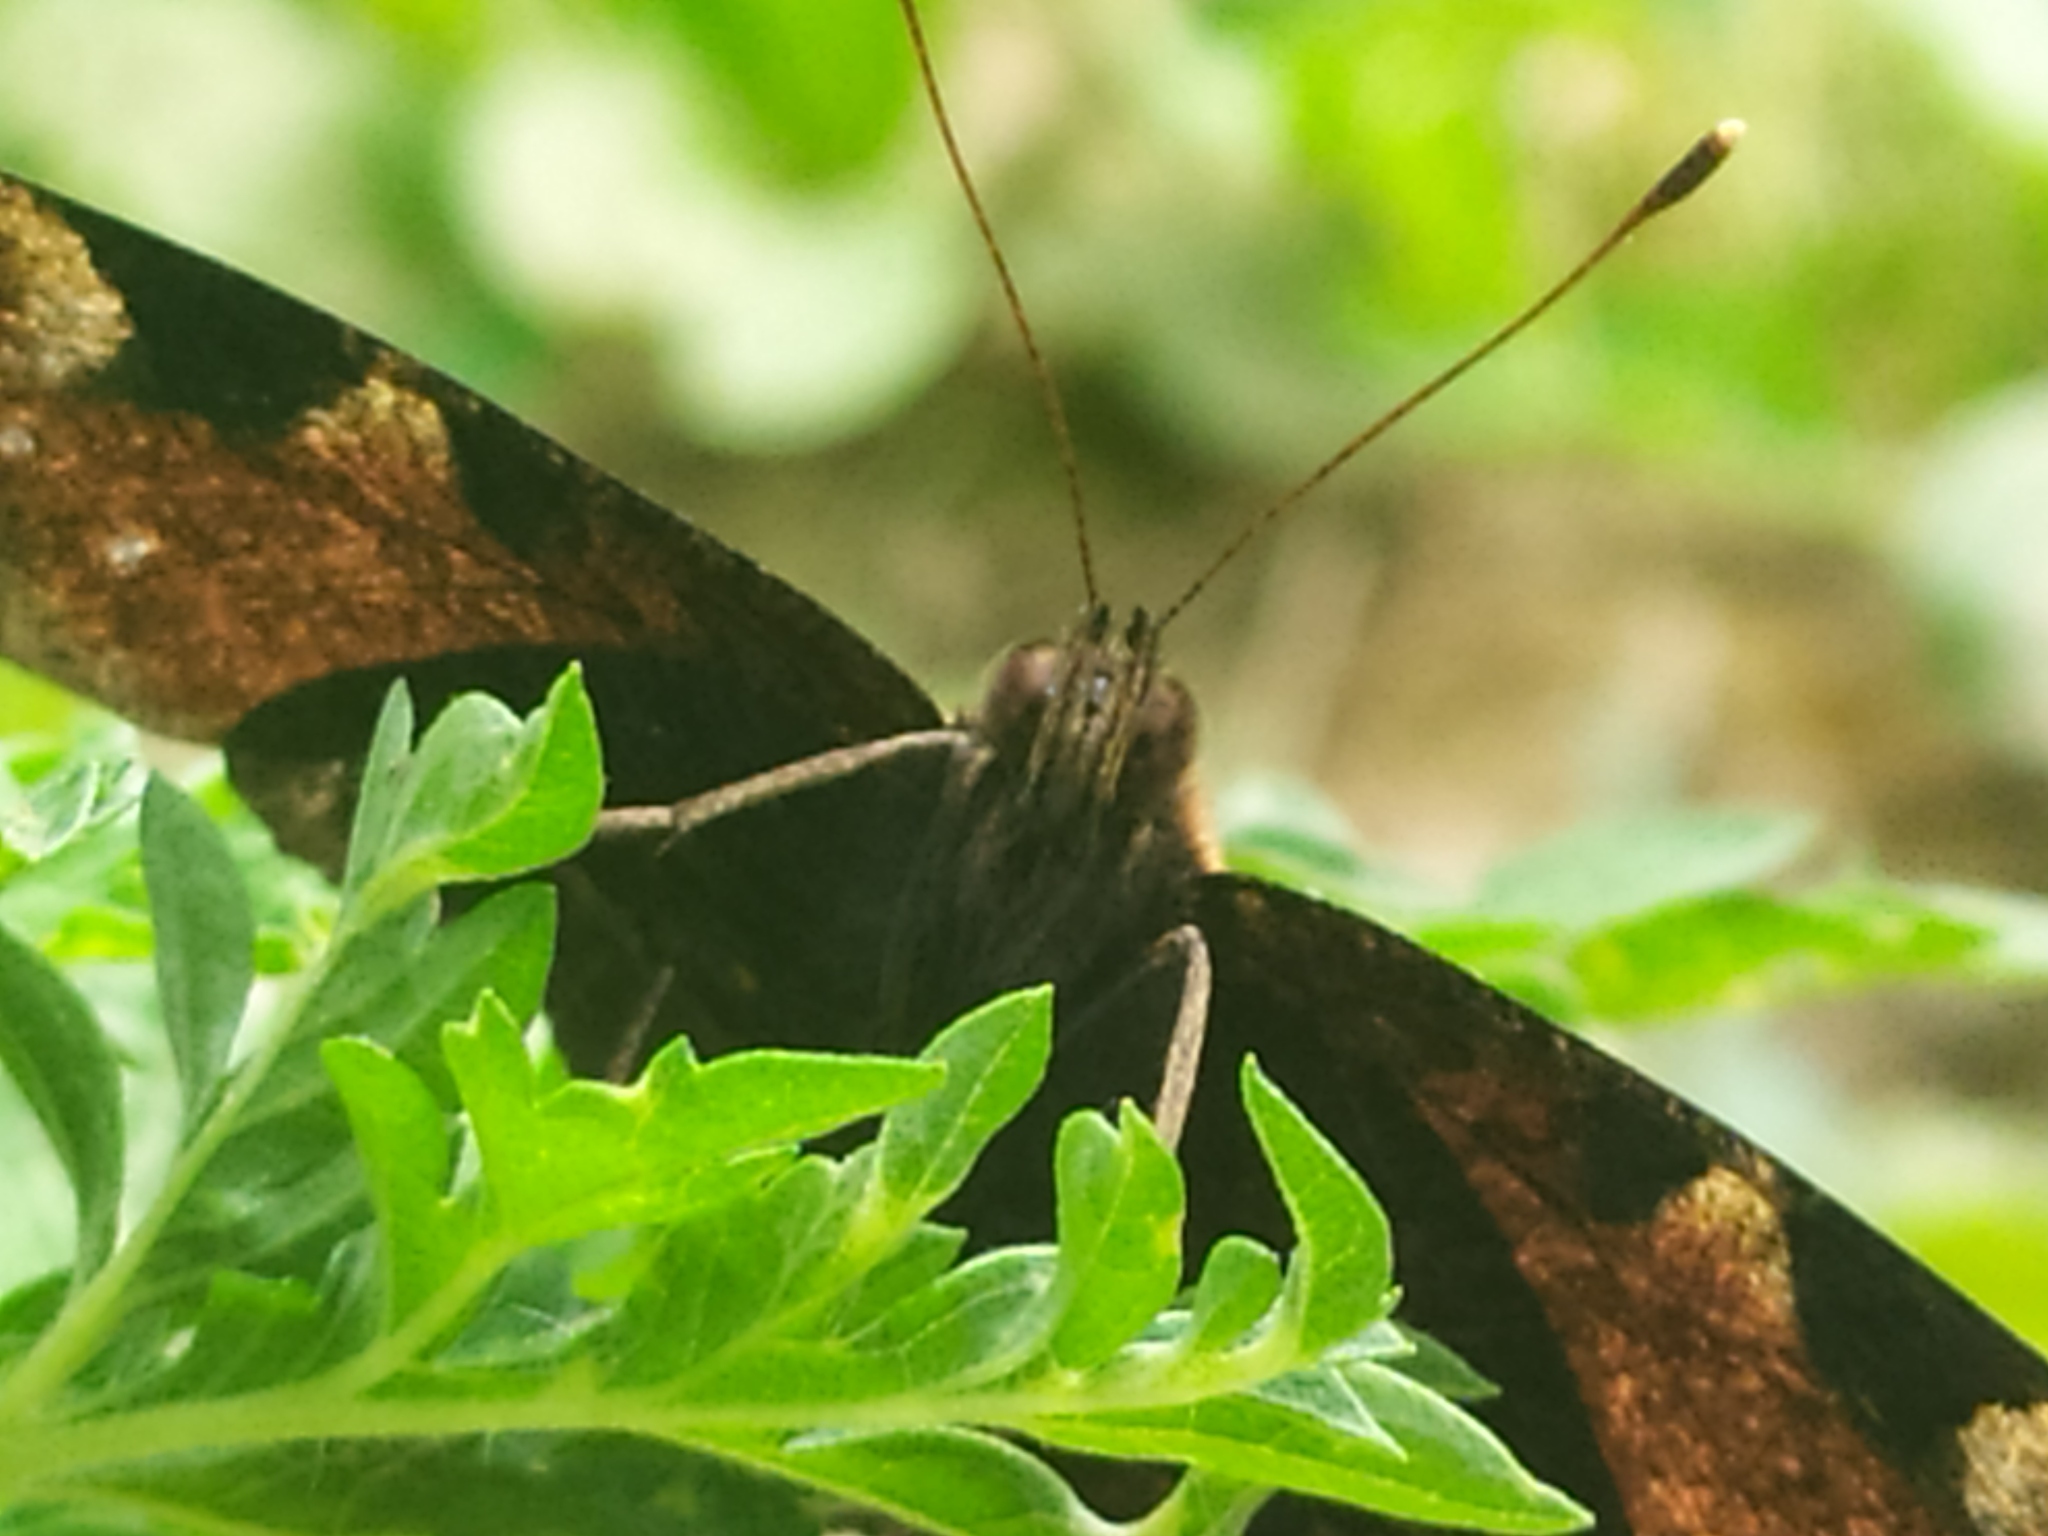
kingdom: Animalia
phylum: Arthropoda
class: Insecta
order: Lepidoptera
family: Nymphalidae
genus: Aglais
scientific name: Aglais io
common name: Peacock
